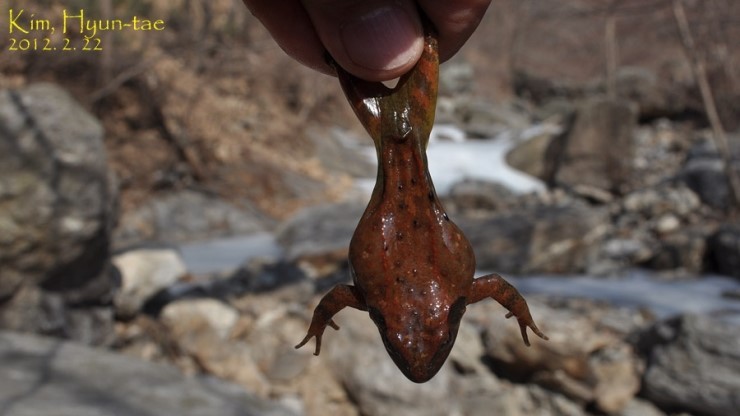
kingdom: Animalia
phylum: Chordata
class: Amphibia
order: Anura
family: Ranidae
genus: Rana
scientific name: Rana huanrenensis
